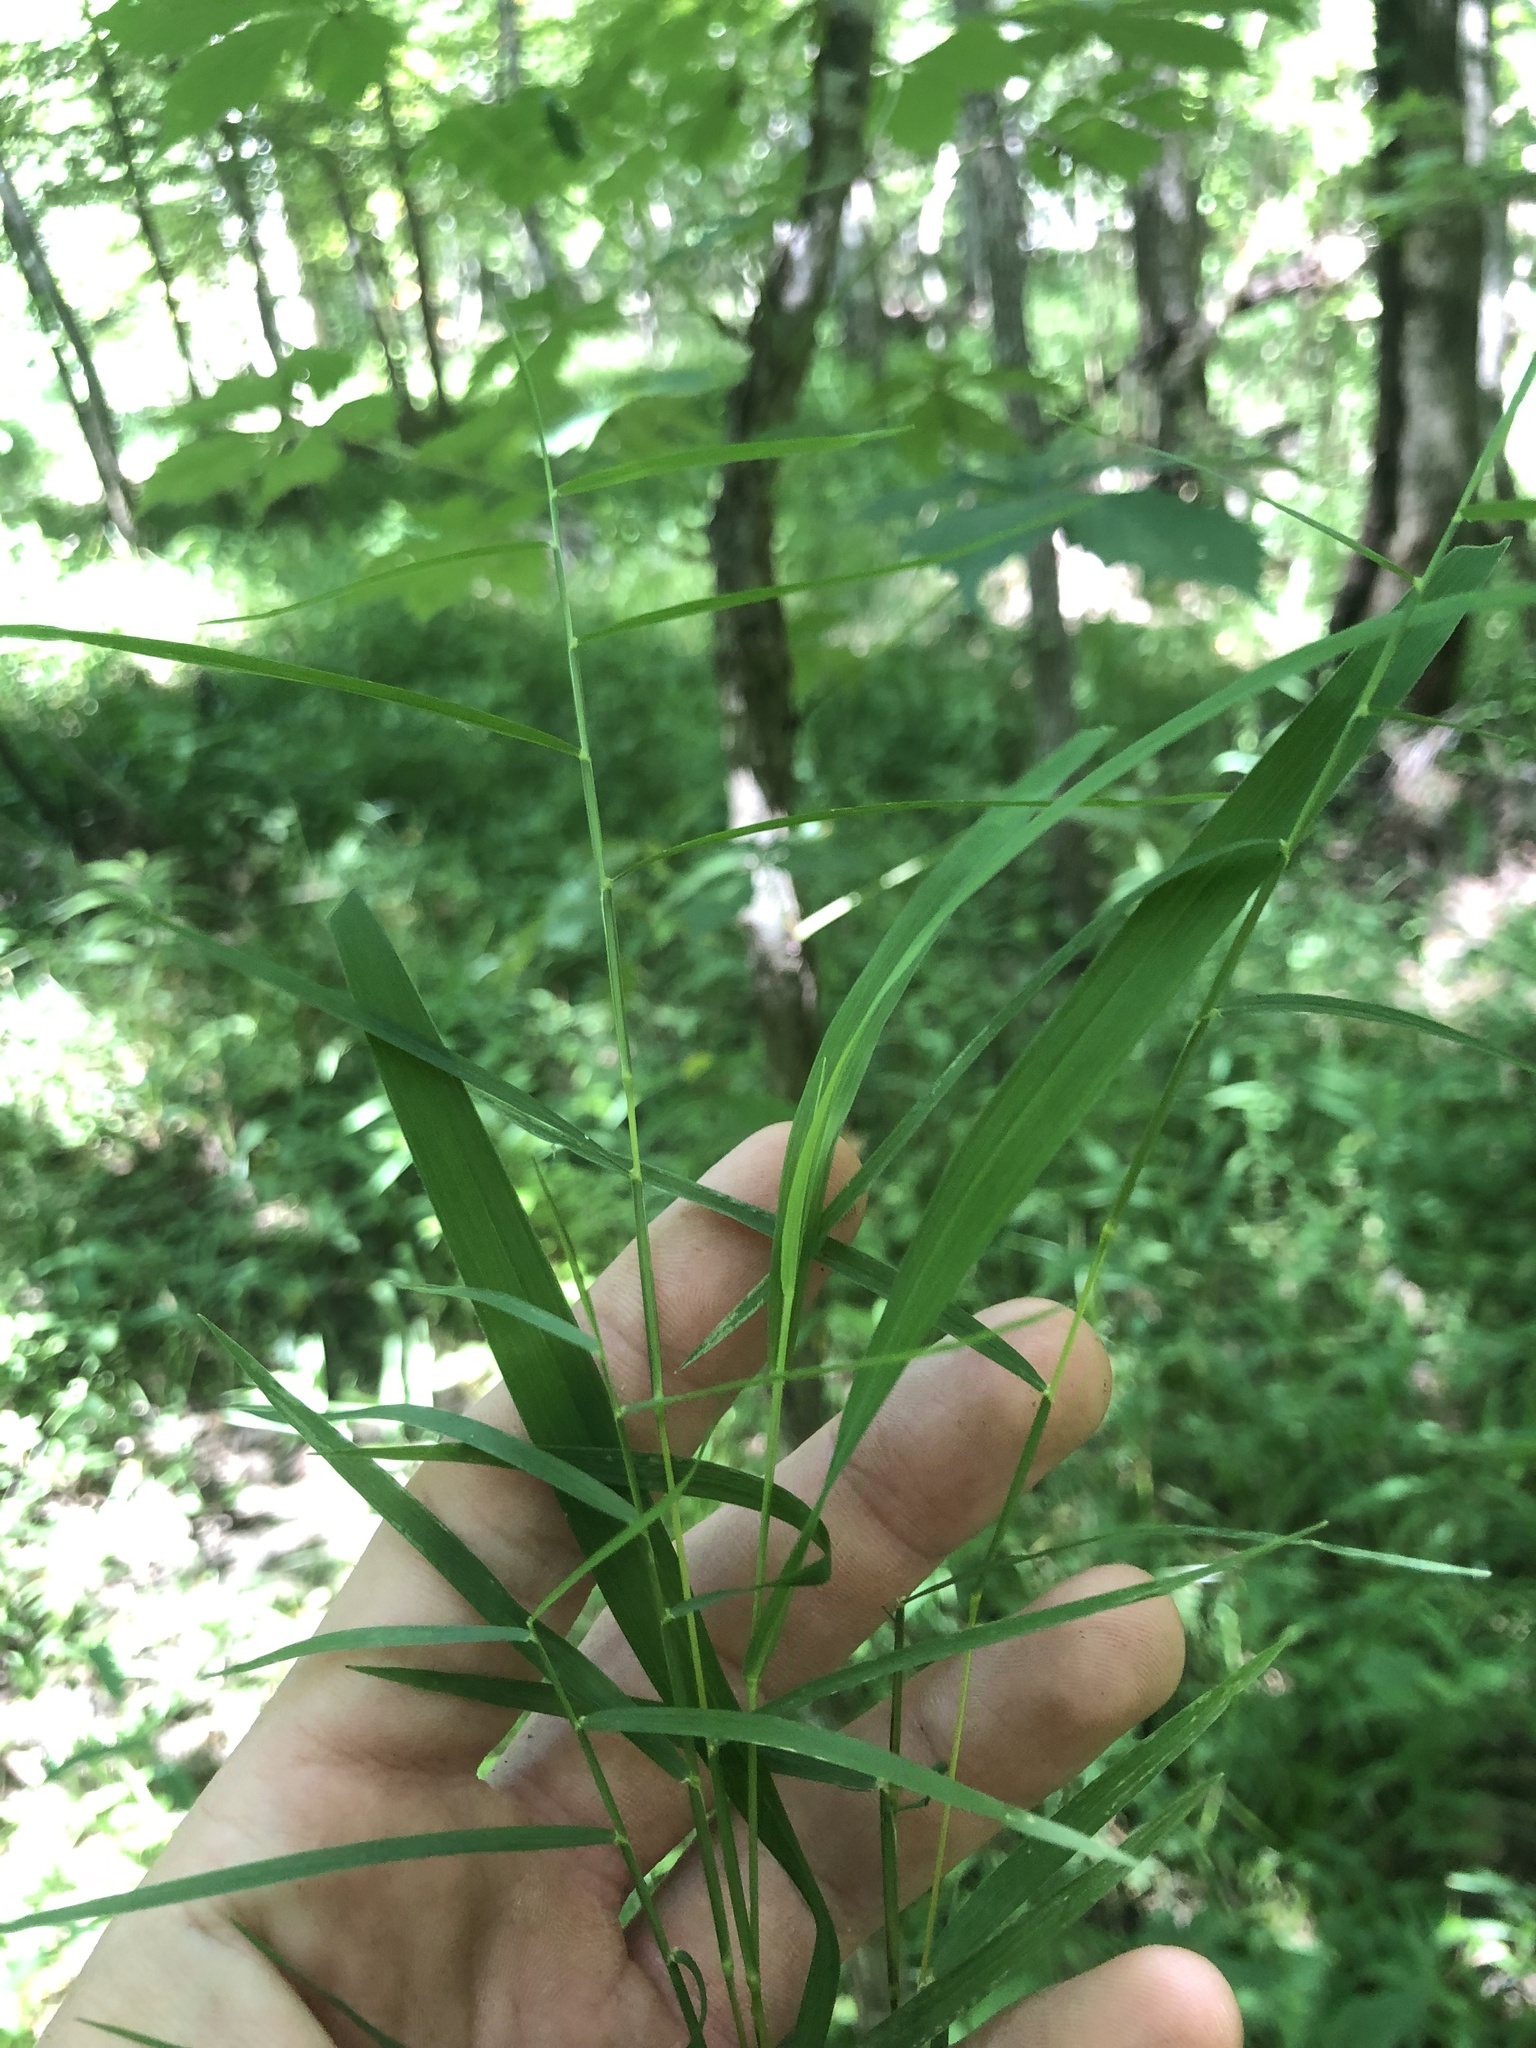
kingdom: Plantae
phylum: Tracheophyta
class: Liliopsida
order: Poales
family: Poaceae
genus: Muhlenbergia
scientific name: Muhlenbergia schreberi
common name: Nimblewill
